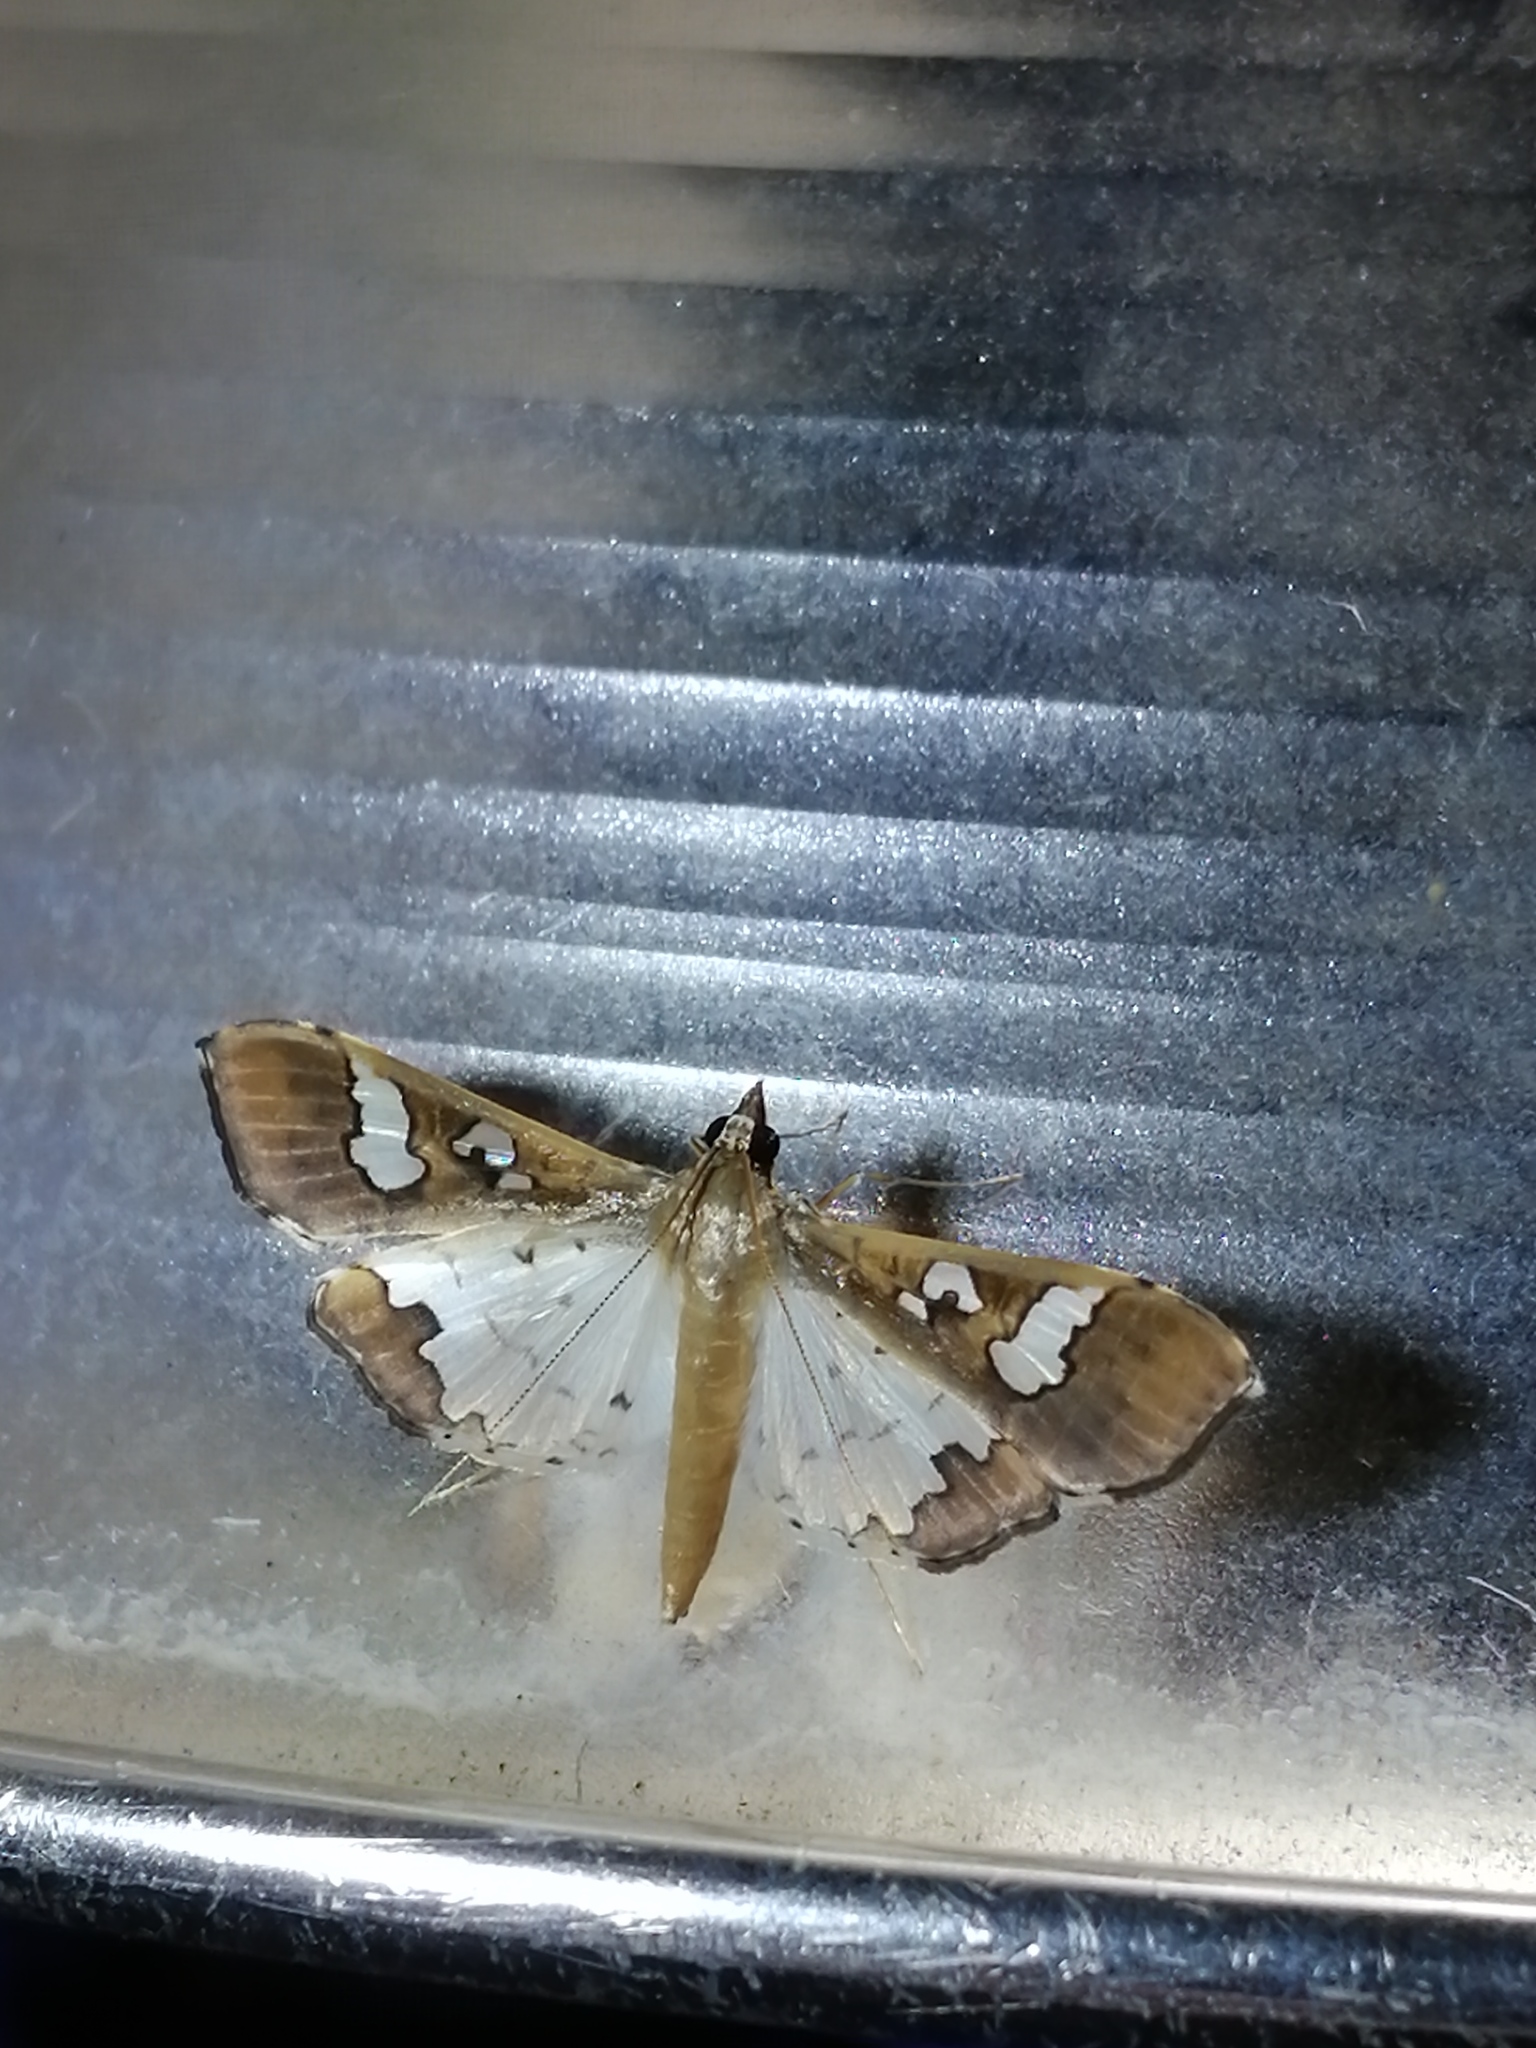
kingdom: Animalia
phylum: Arthropoda
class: Insecta
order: Lepidoptera
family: Crambidae
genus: Maruca
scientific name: Maruca vitrata
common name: Maruca pod borer
